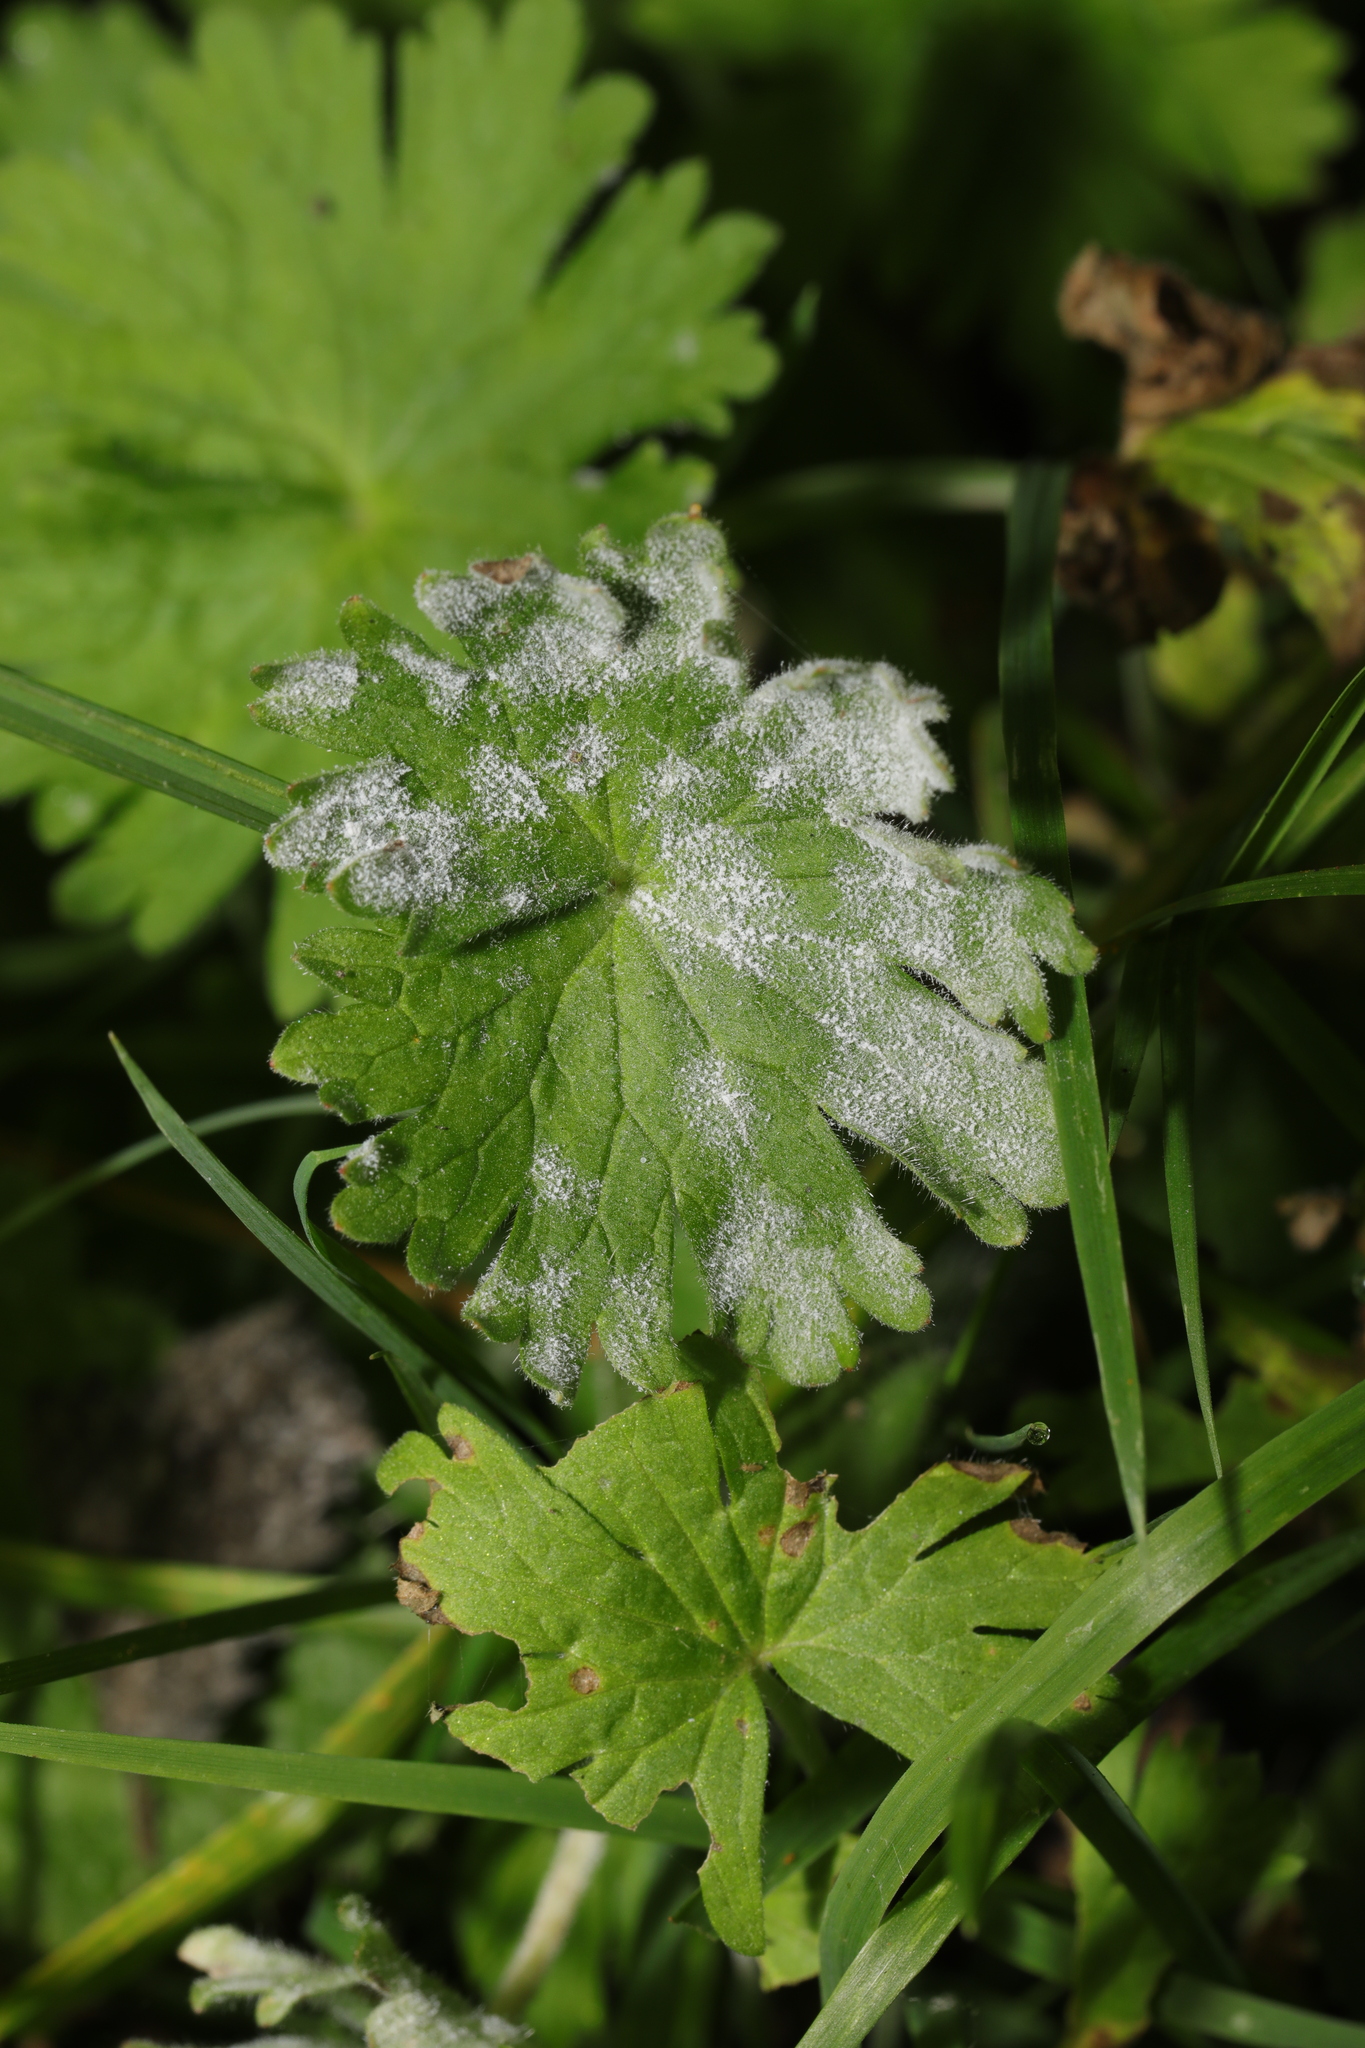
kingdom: Fungi
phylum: Ascomycota
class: Leotiomycetes
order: Helotiales
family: Erysiphaceae
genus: Podosphaera
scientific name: Podosphaera fugax
